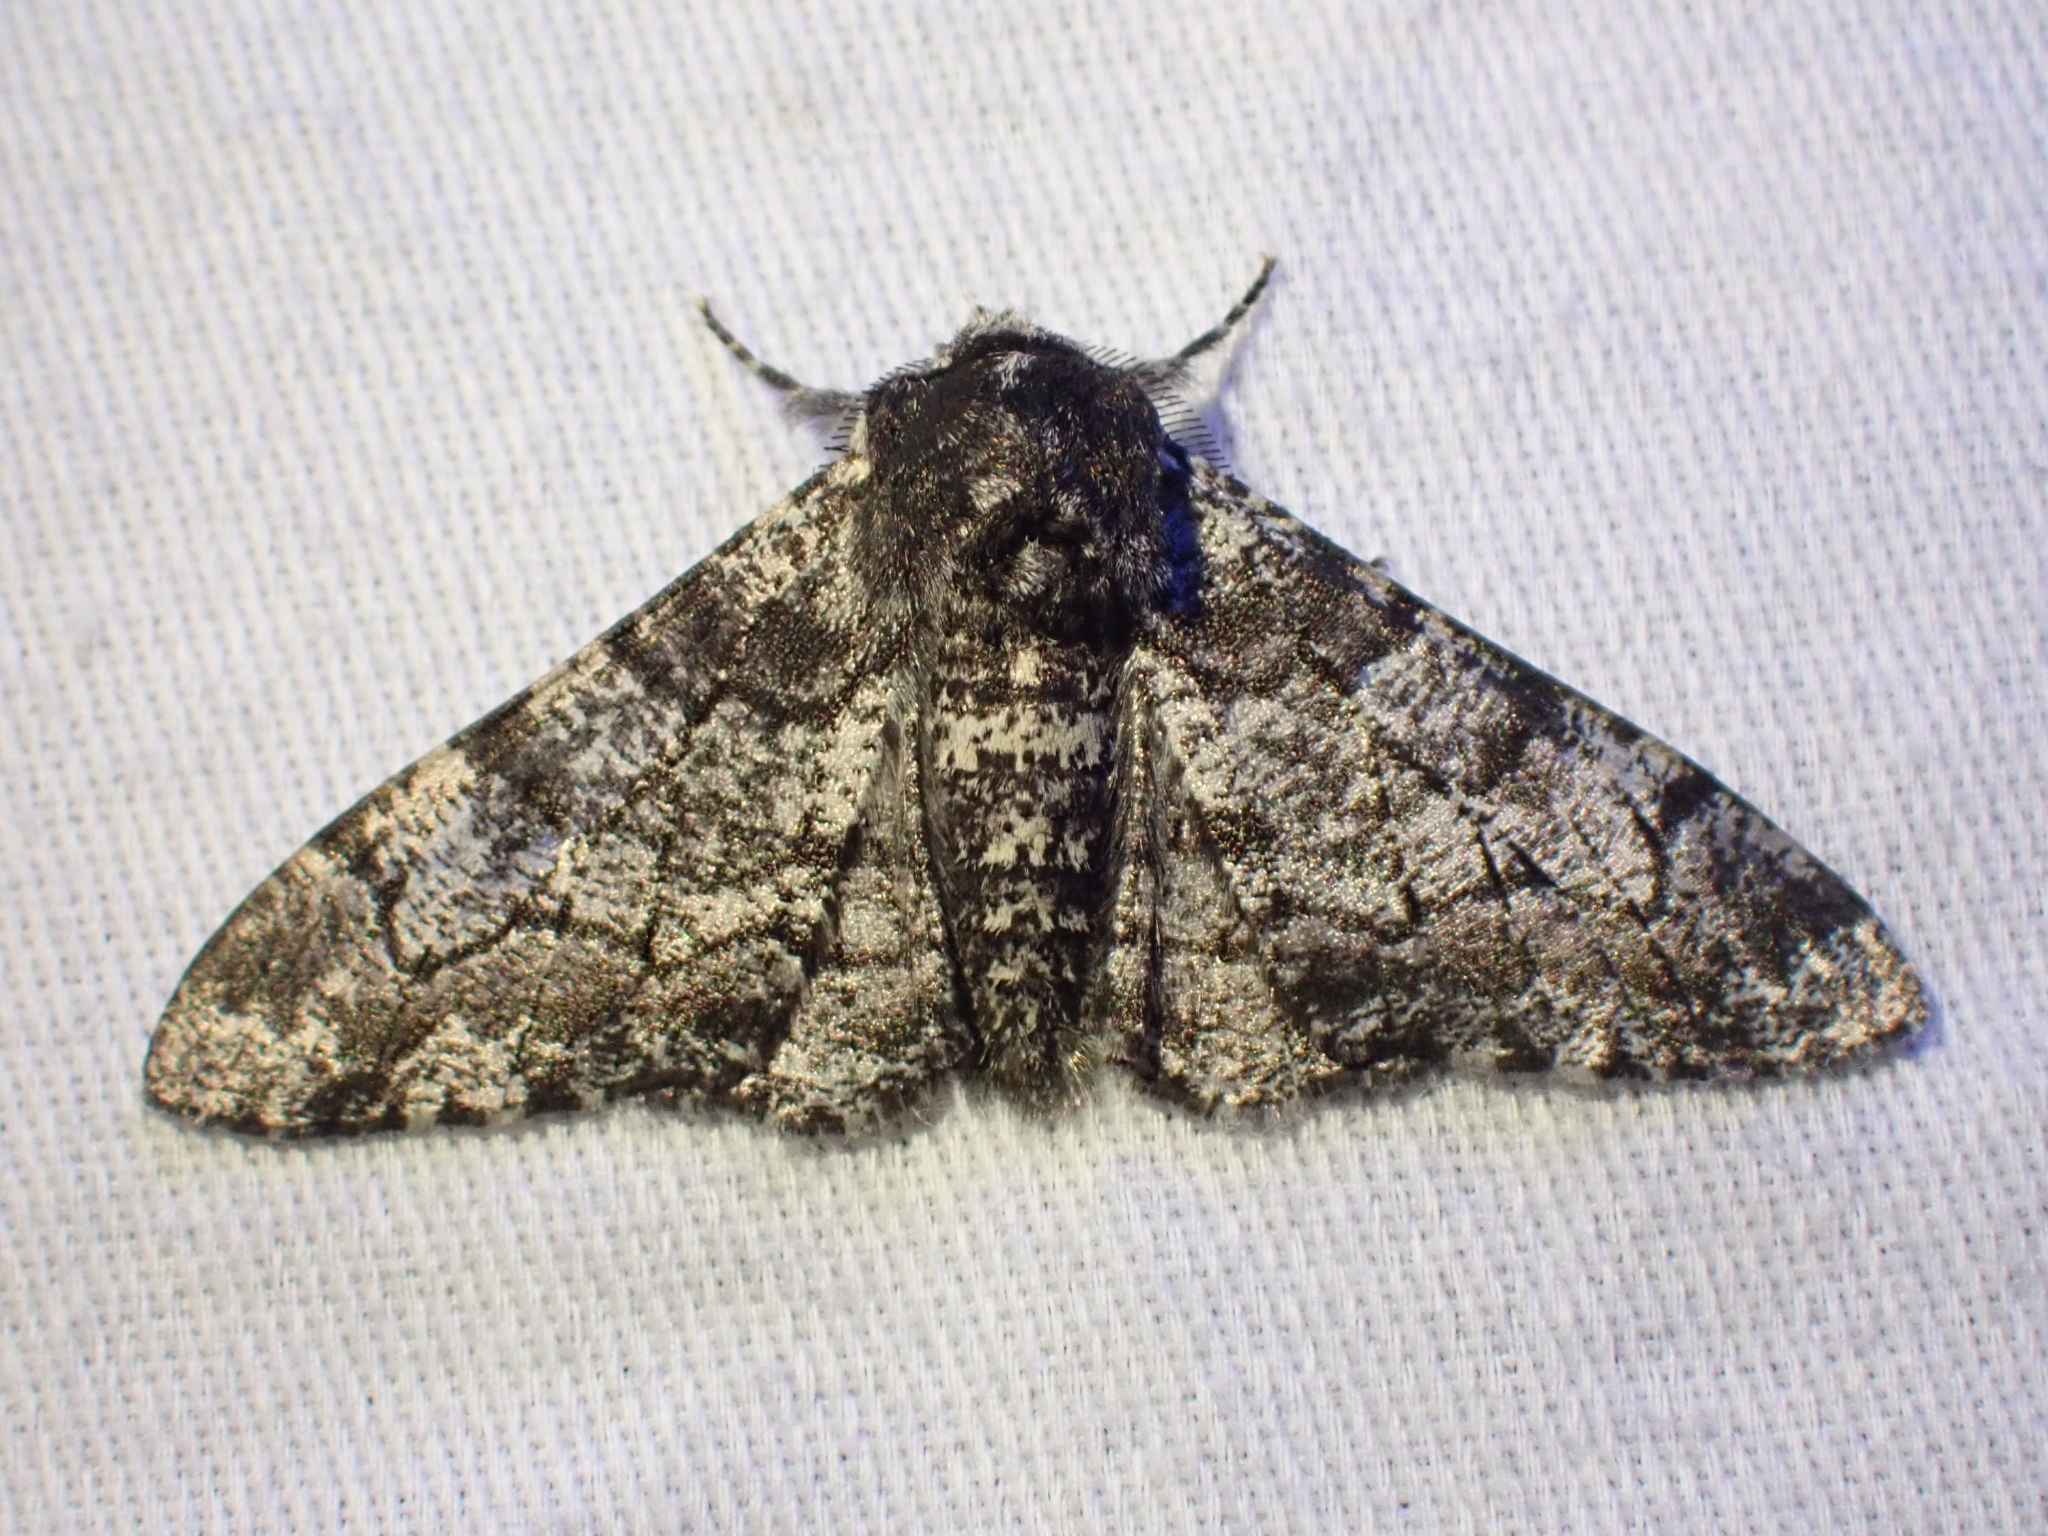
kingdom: Animalia
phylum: Arthropoda
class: Insecta
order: Lepidoptera
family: Geometridae
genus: Biston
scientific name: Biston betularia
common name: Peppered moth
